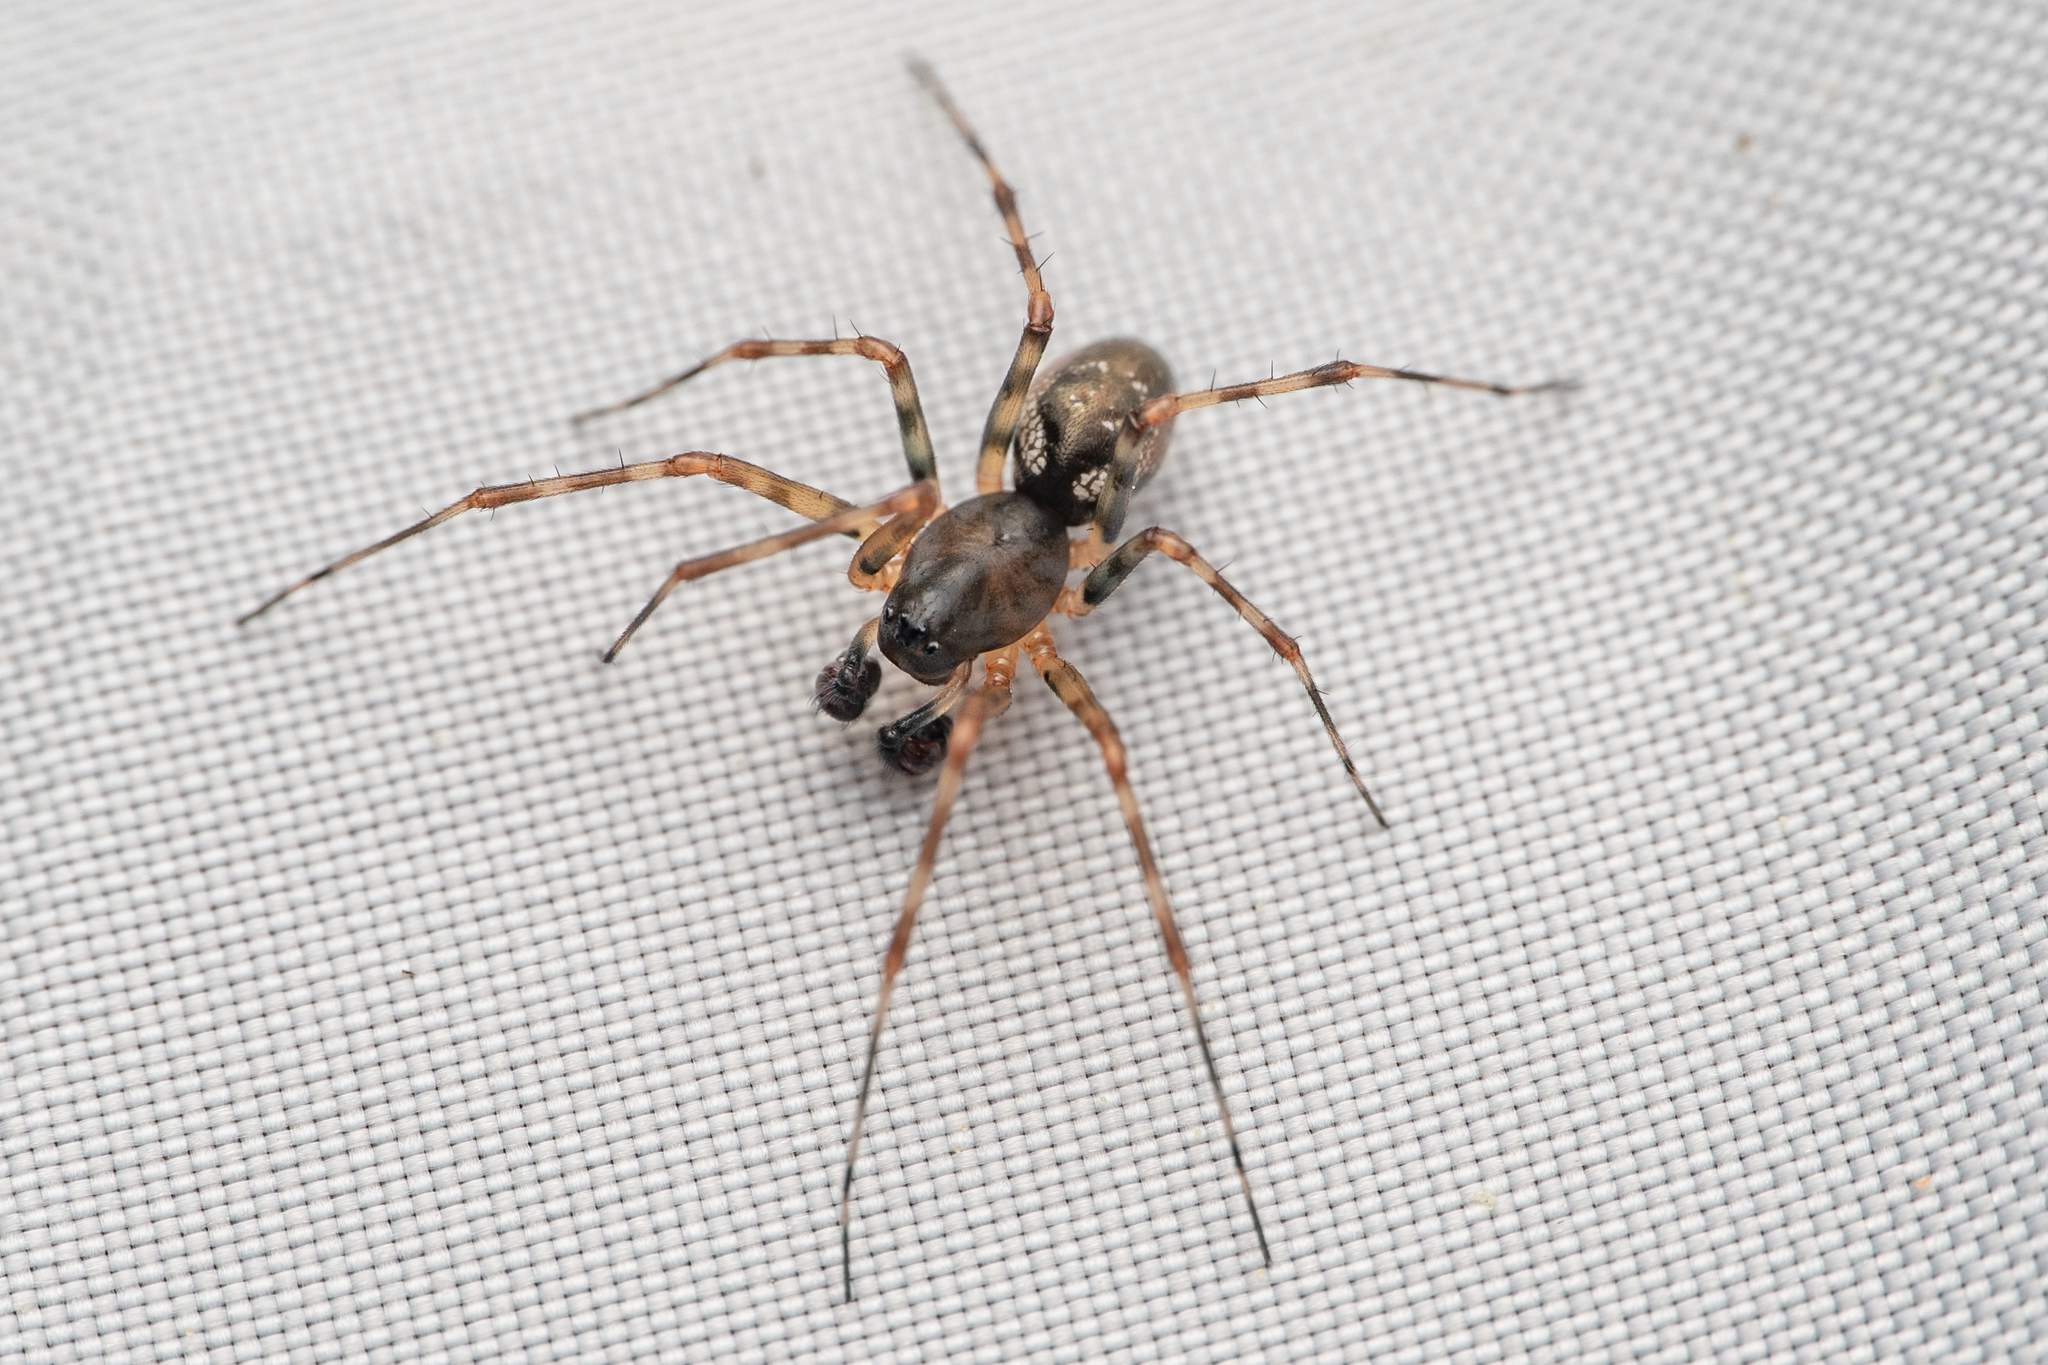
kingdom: Animalia
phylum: Arthropoda
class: Arachnida
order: Araneae
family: Linyphiidae
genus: Neriene
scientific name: Neriene digna
